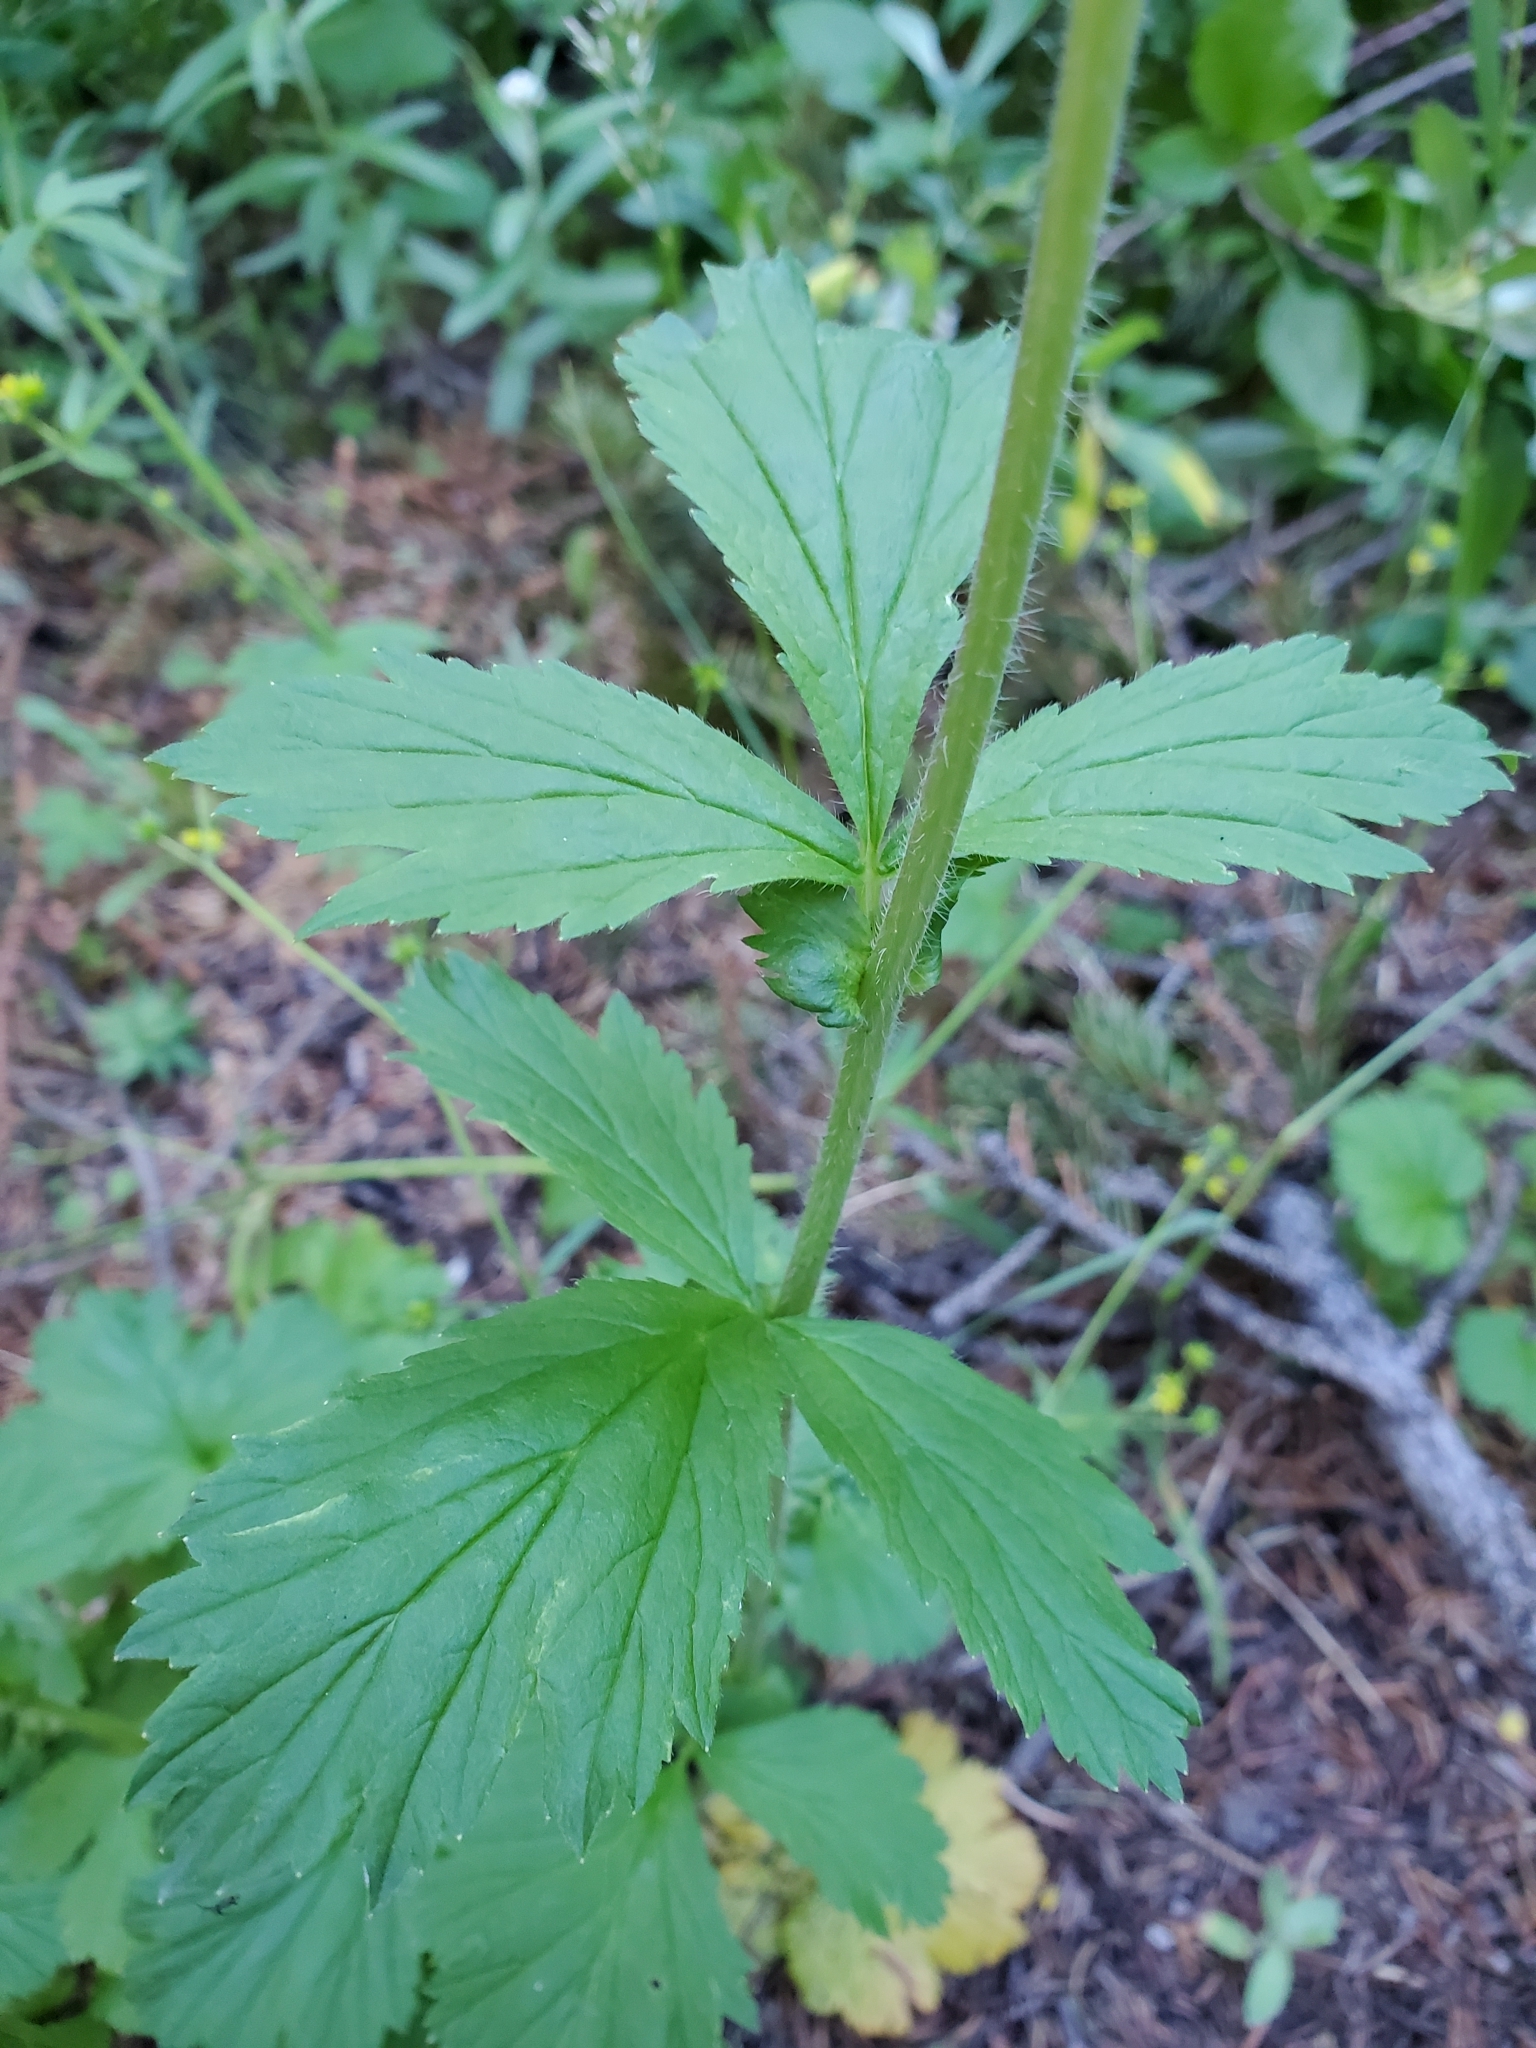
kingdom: Plantae
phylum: Tracheophyta
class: Magnoliopsida
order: Rosales
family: Rosaceae
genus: Geum
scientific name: Geum aleppicum
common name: Yellow avens
